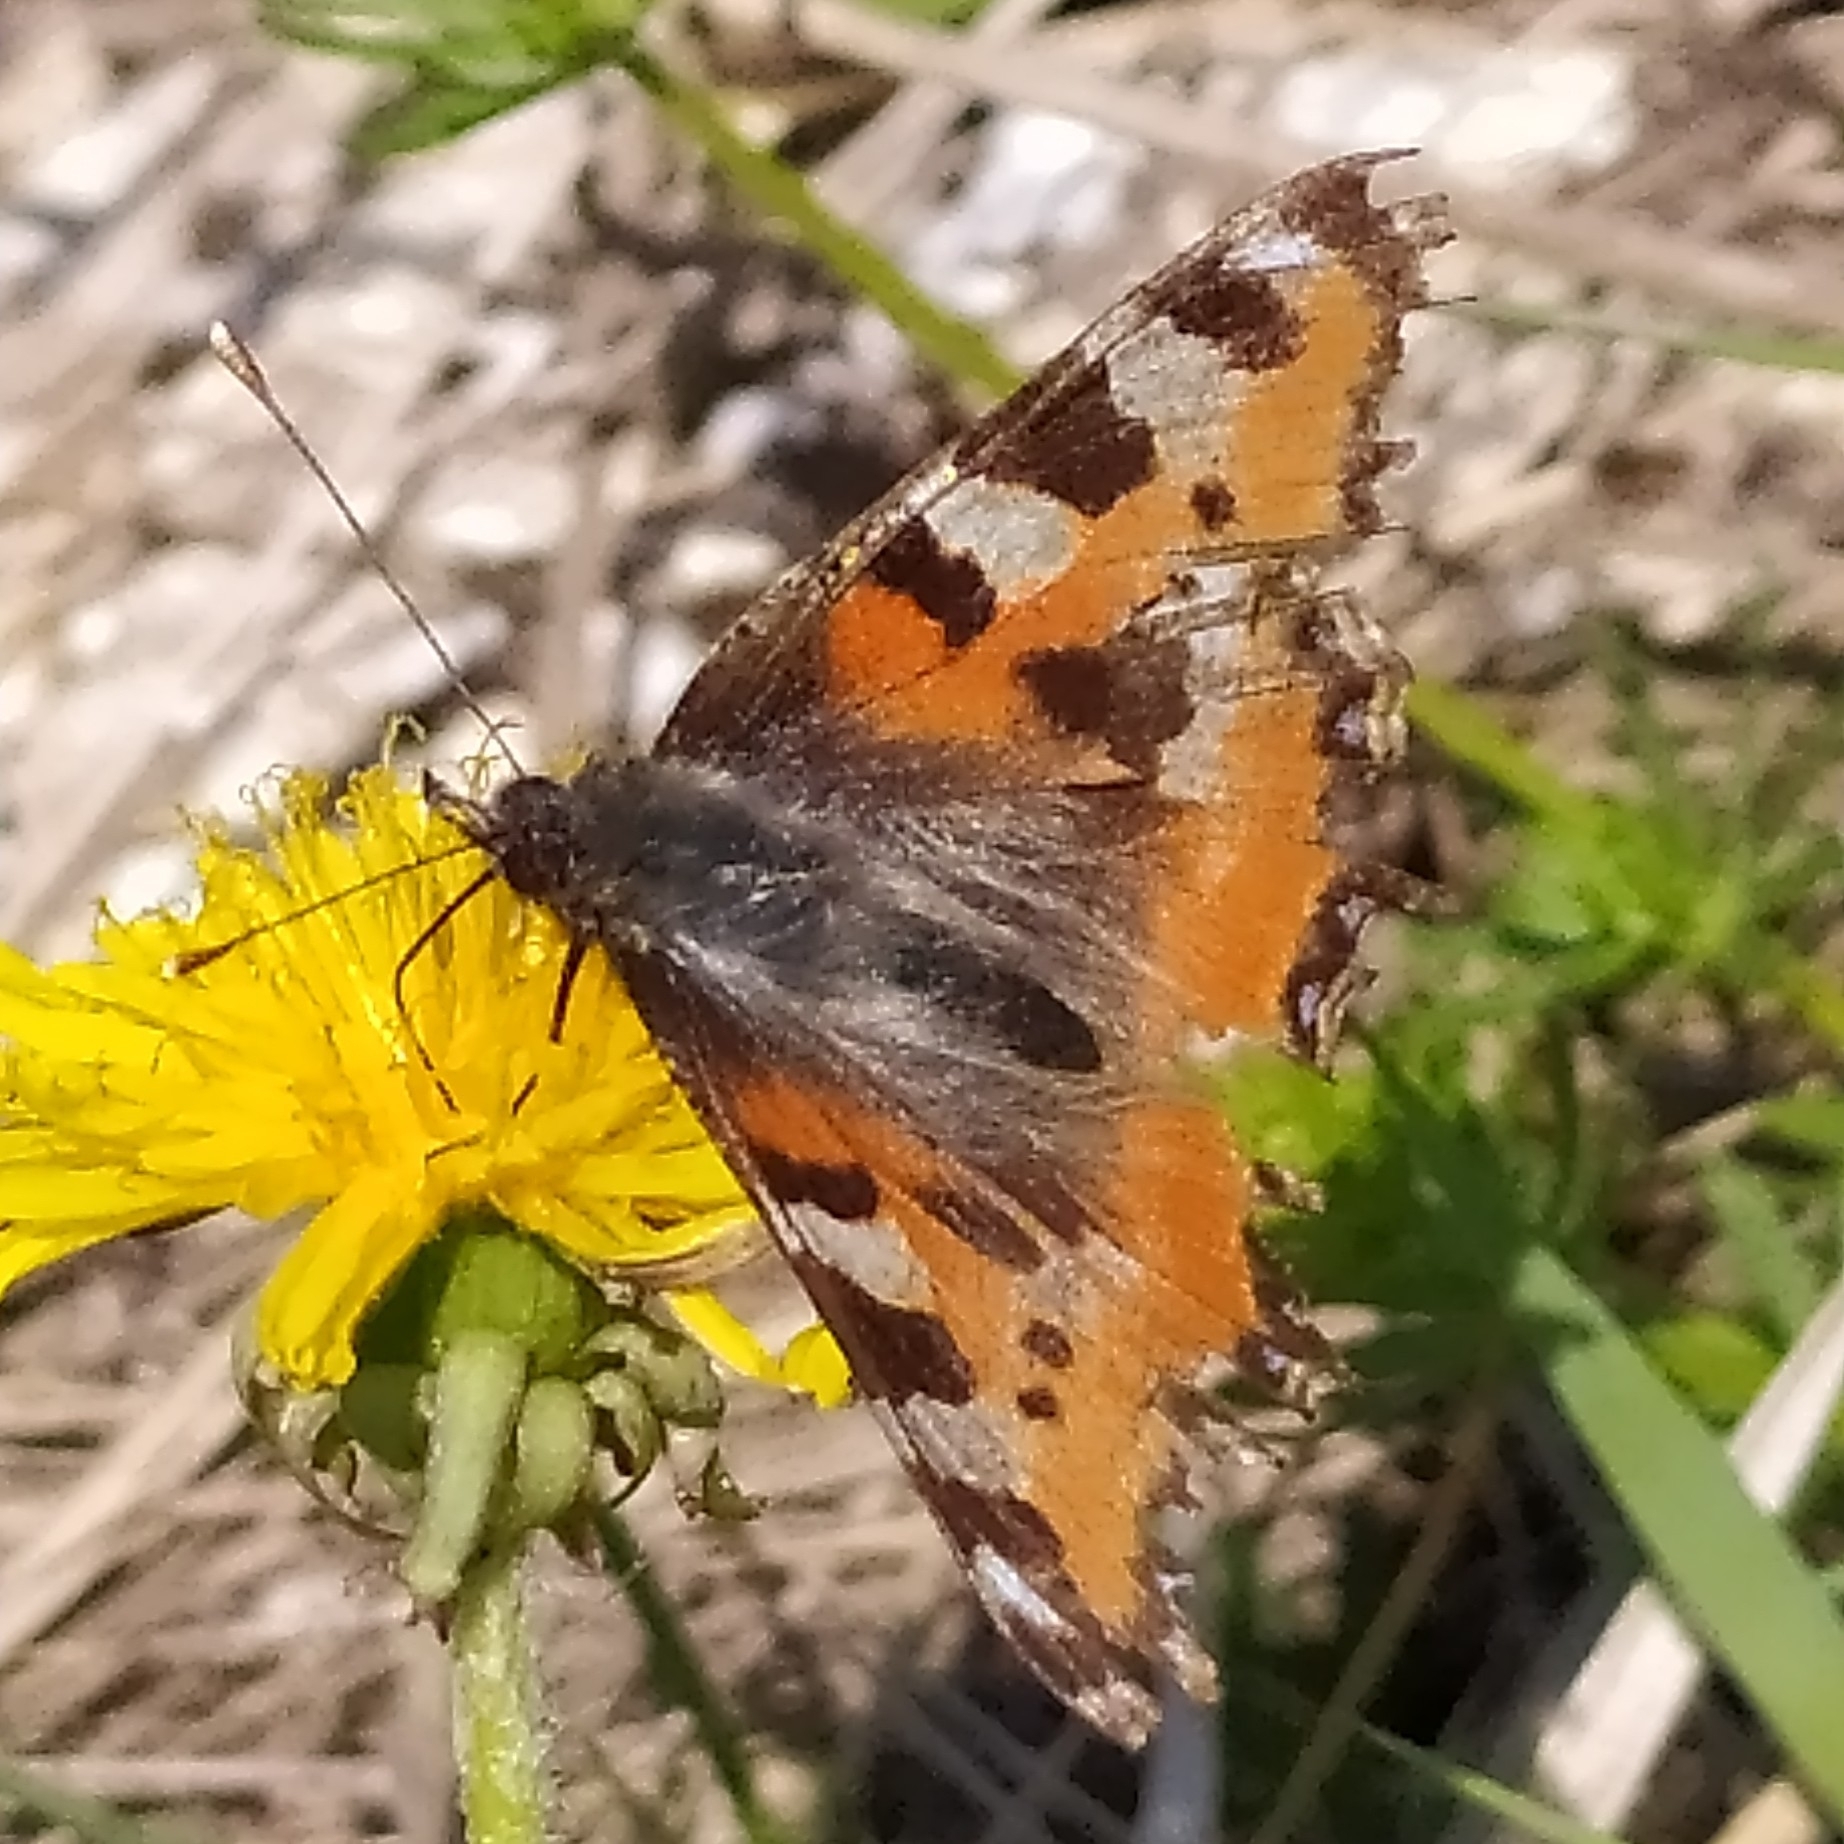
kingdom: Animalia
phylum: Arthropoda
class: Insecta
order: Lepidoptera
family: Nymphalidae
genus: Aglais
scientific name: Aglais urticae
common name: Small tortoiseshell
